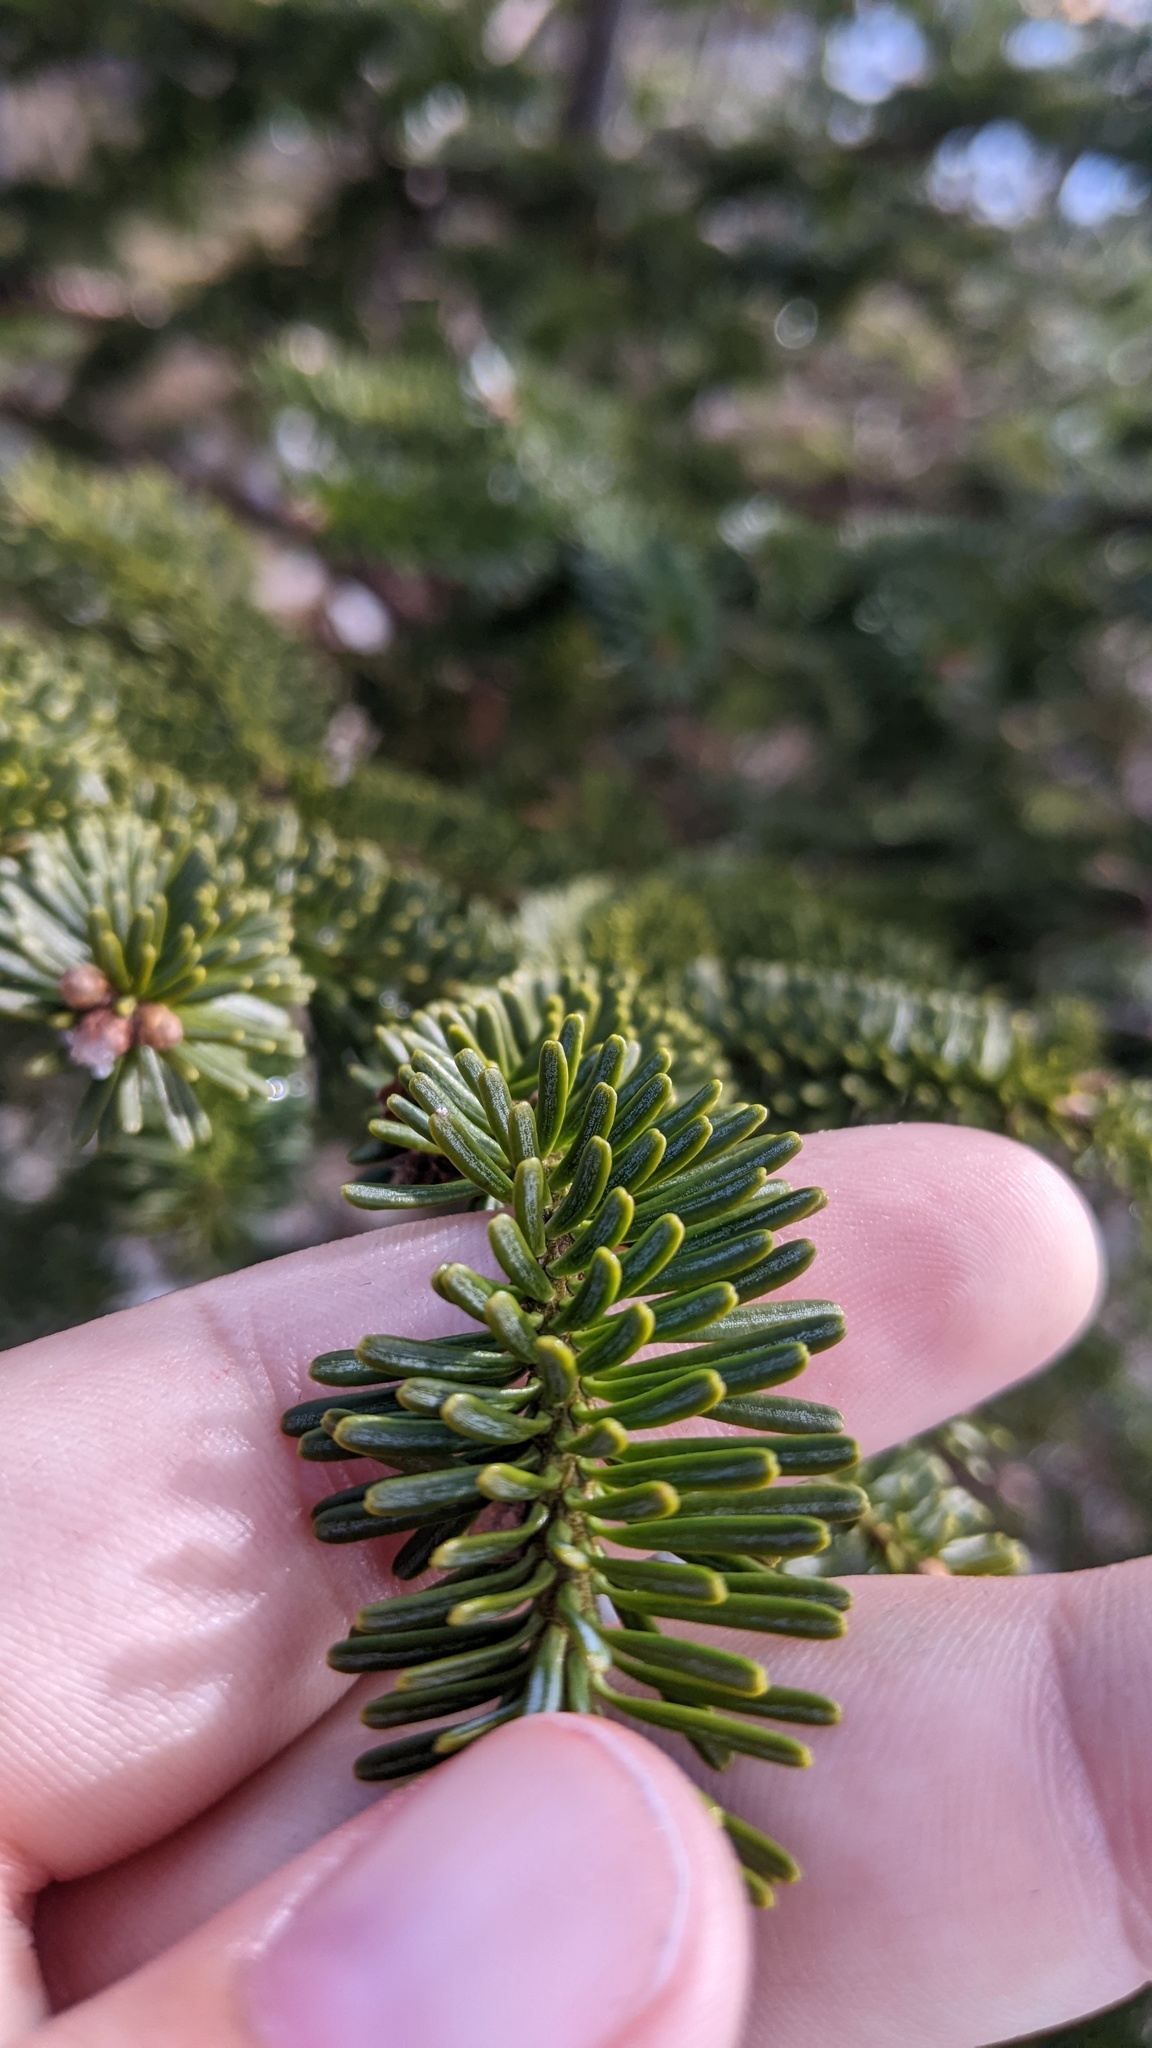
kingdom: Plantae
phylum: Tracheophyta
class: Pinopsida
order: Pinales
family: Pinaceae
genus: Abies
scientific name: Abies balsamea
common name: Balsam fir
